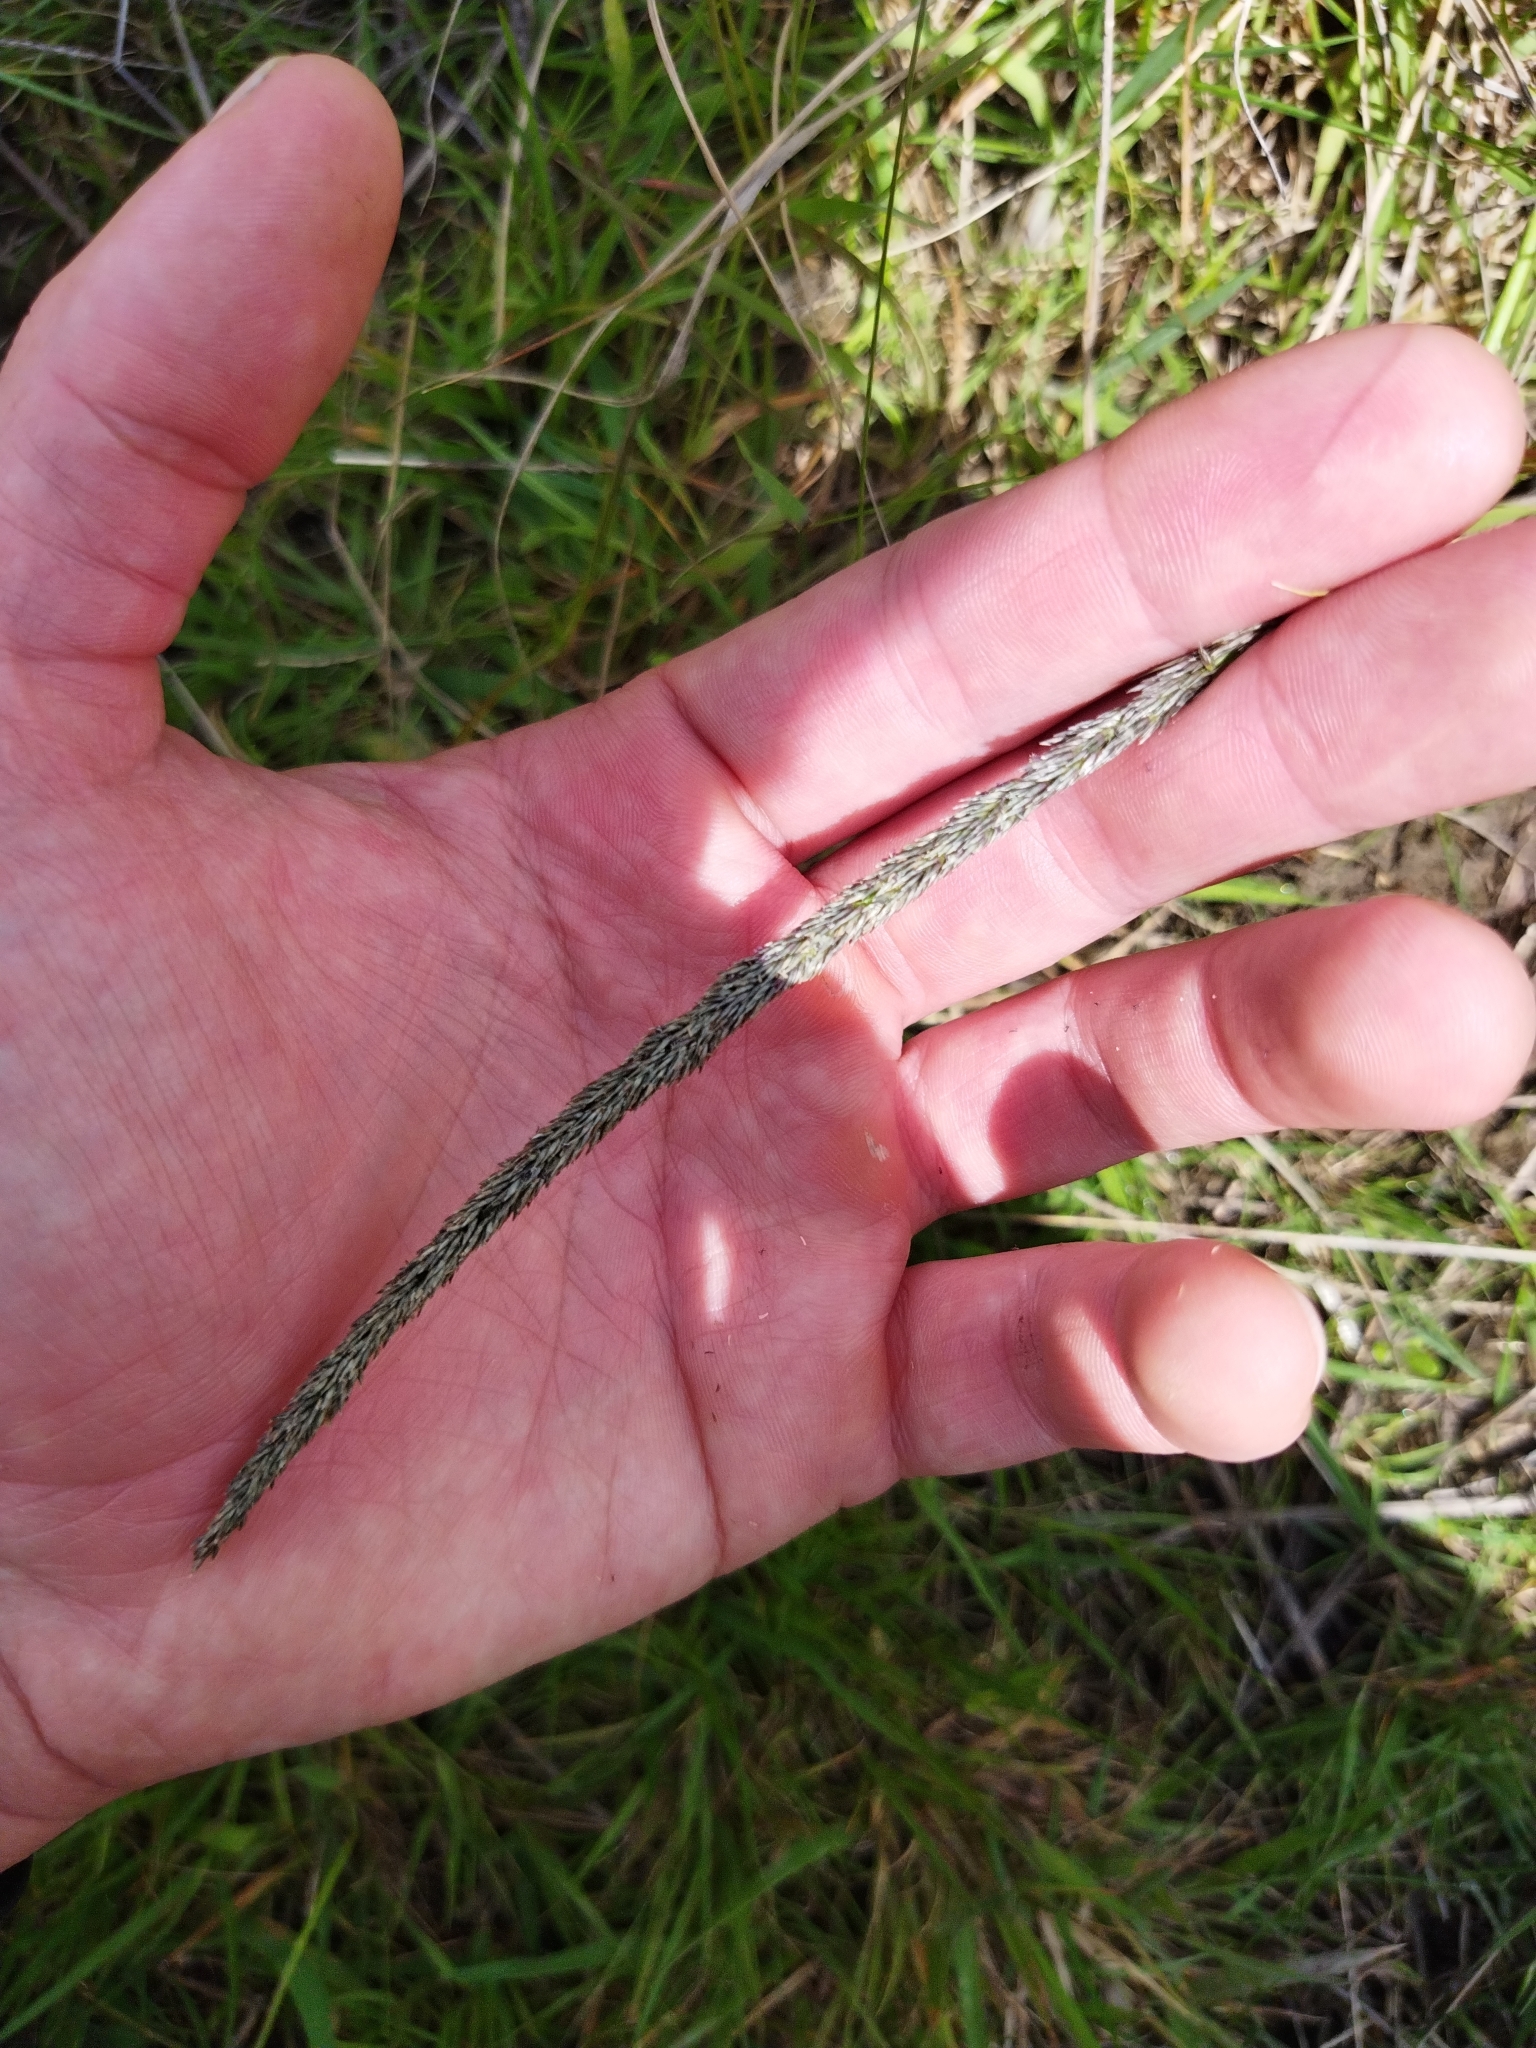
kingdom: Plantae
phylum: Tracheophyta
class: Liliopsida
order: Poales
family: Poaceae
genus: Sporobolus
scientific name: Sporobolus africanus
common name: African dropseed
